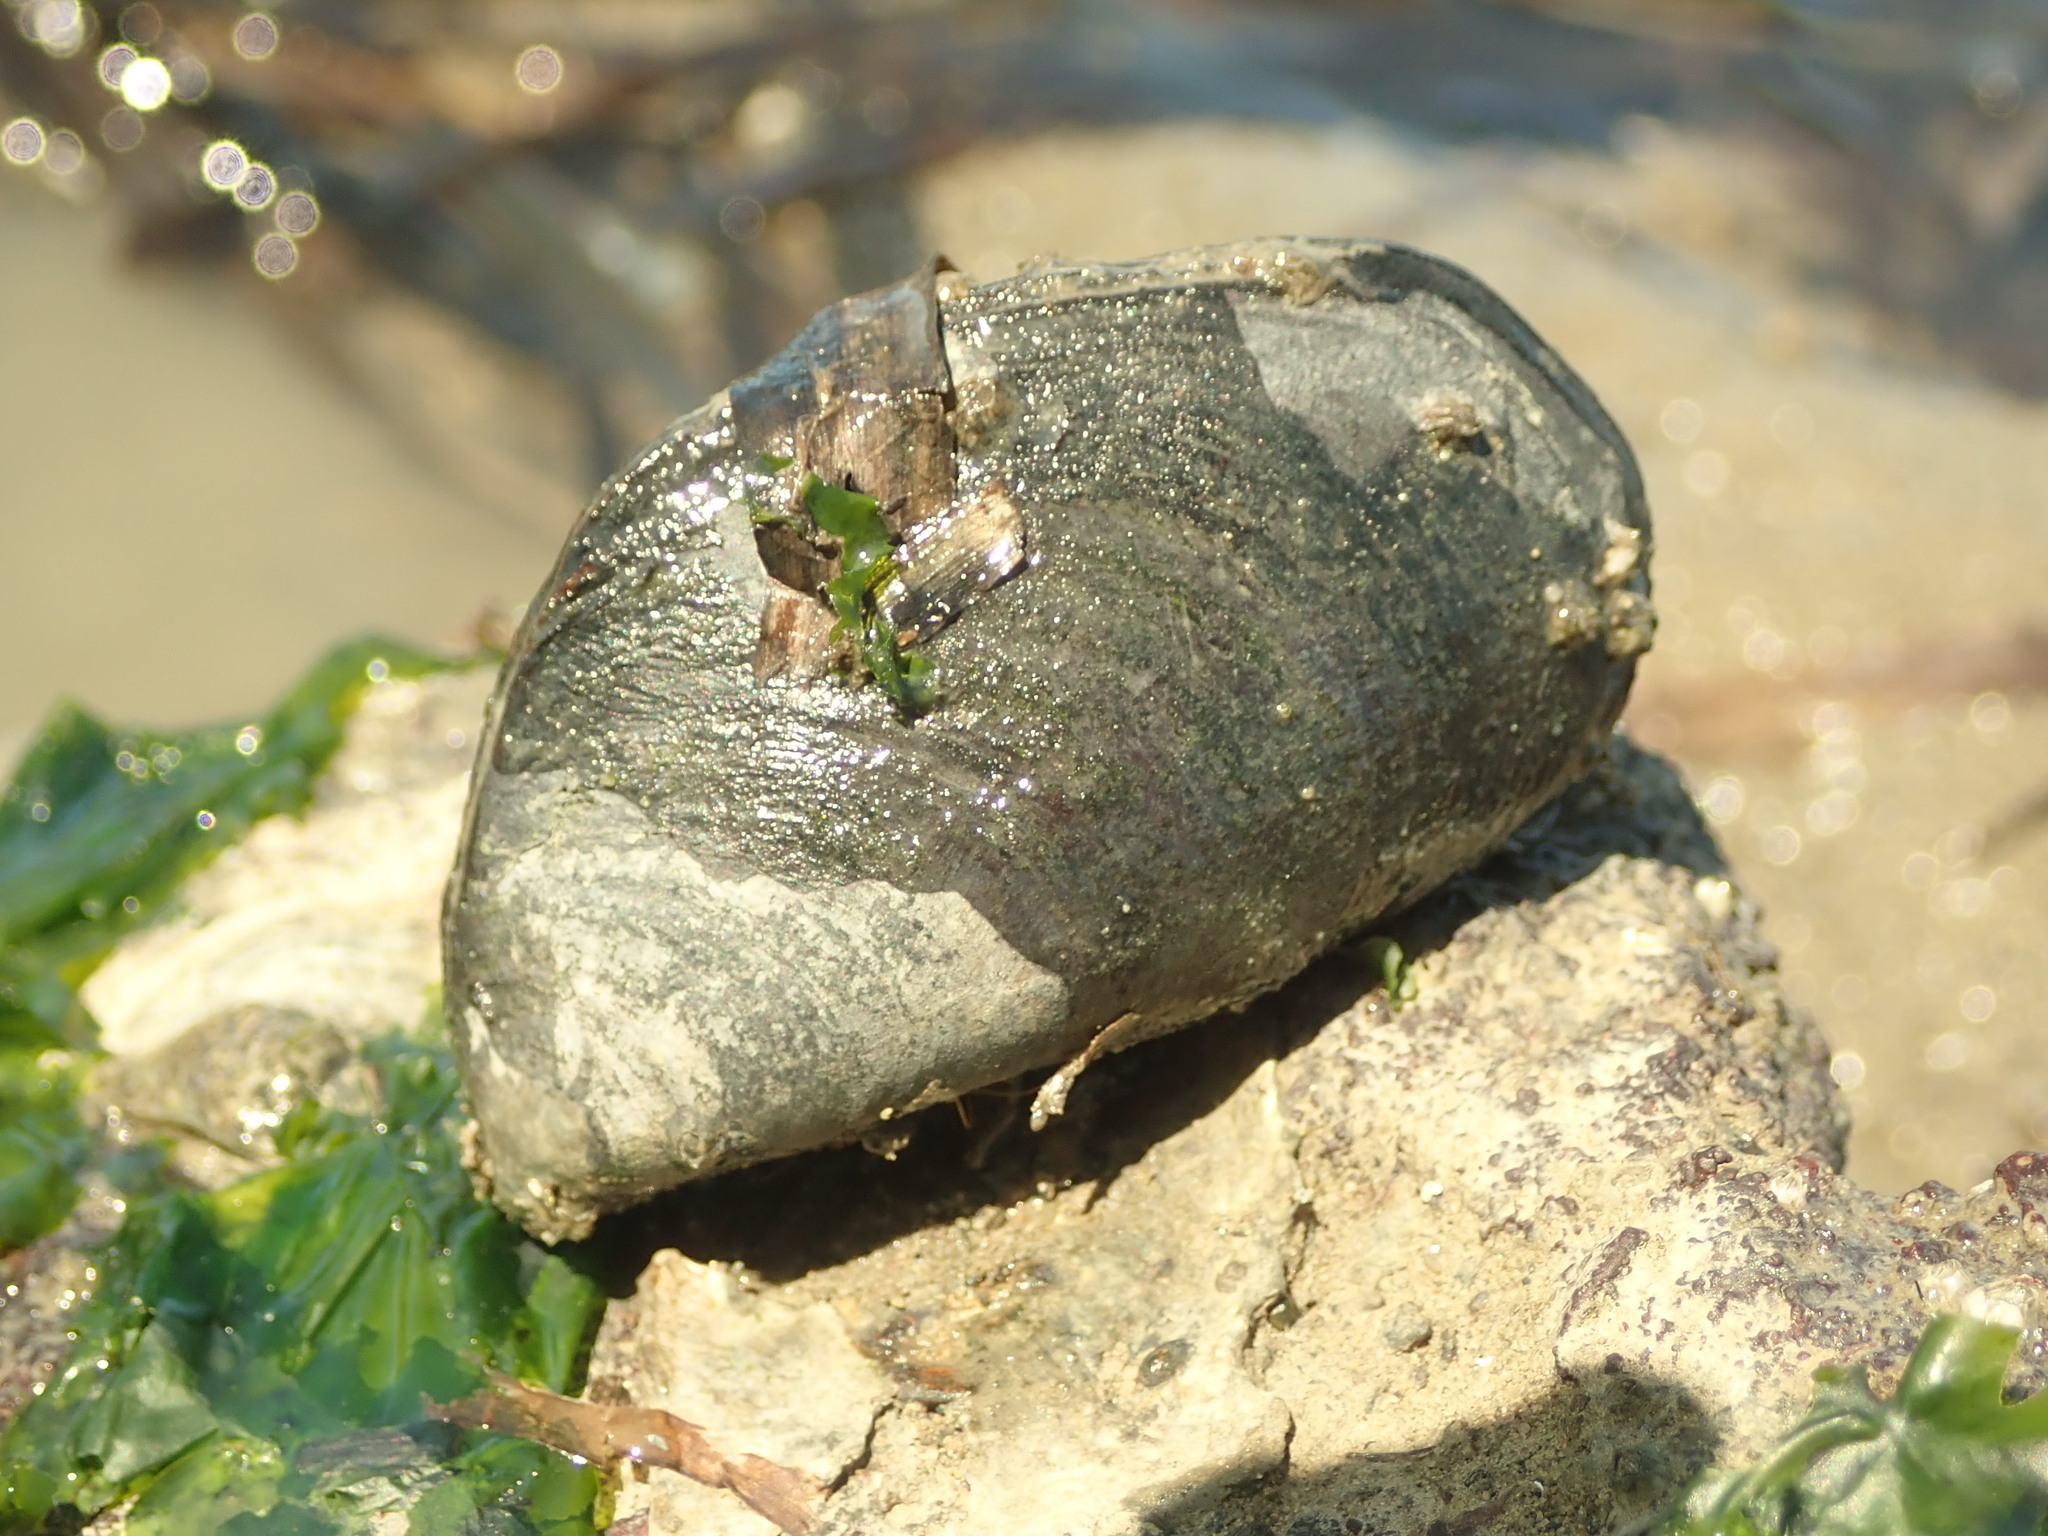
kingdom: Animalia
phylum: Mollusca
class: Bivalvia
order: Mytilida
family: Mytilidae
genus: Mytilus
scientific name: Mytilus
